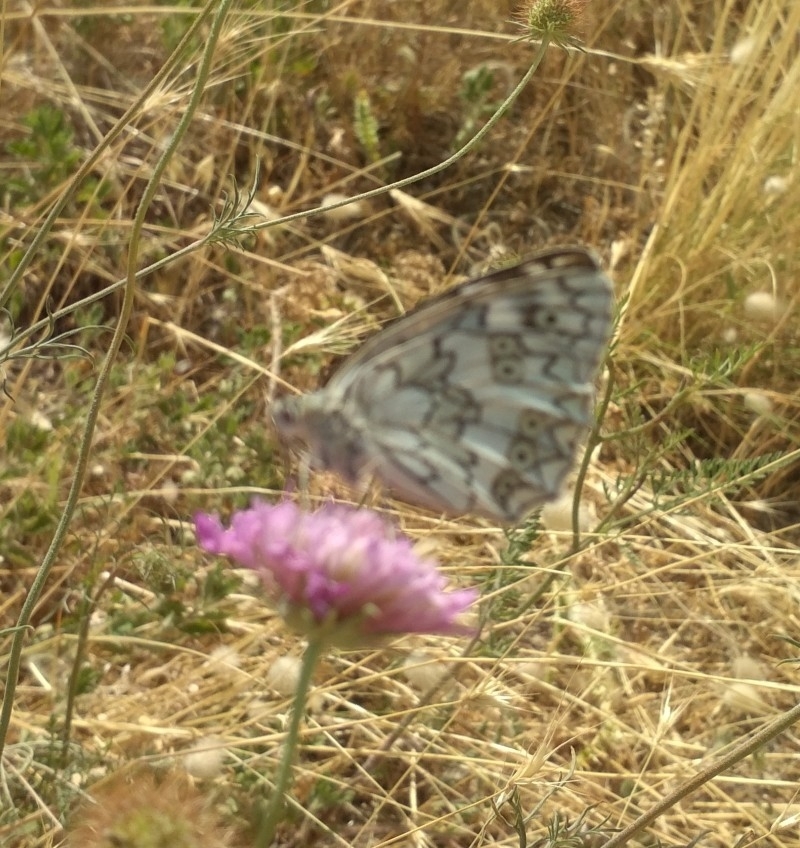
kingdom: Animalia
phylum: Arthropoda
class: Insecta
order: Lepidoptera
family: Nymphalidae
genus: Melanargia
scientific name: Melanargia galathea
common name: Marbled white
